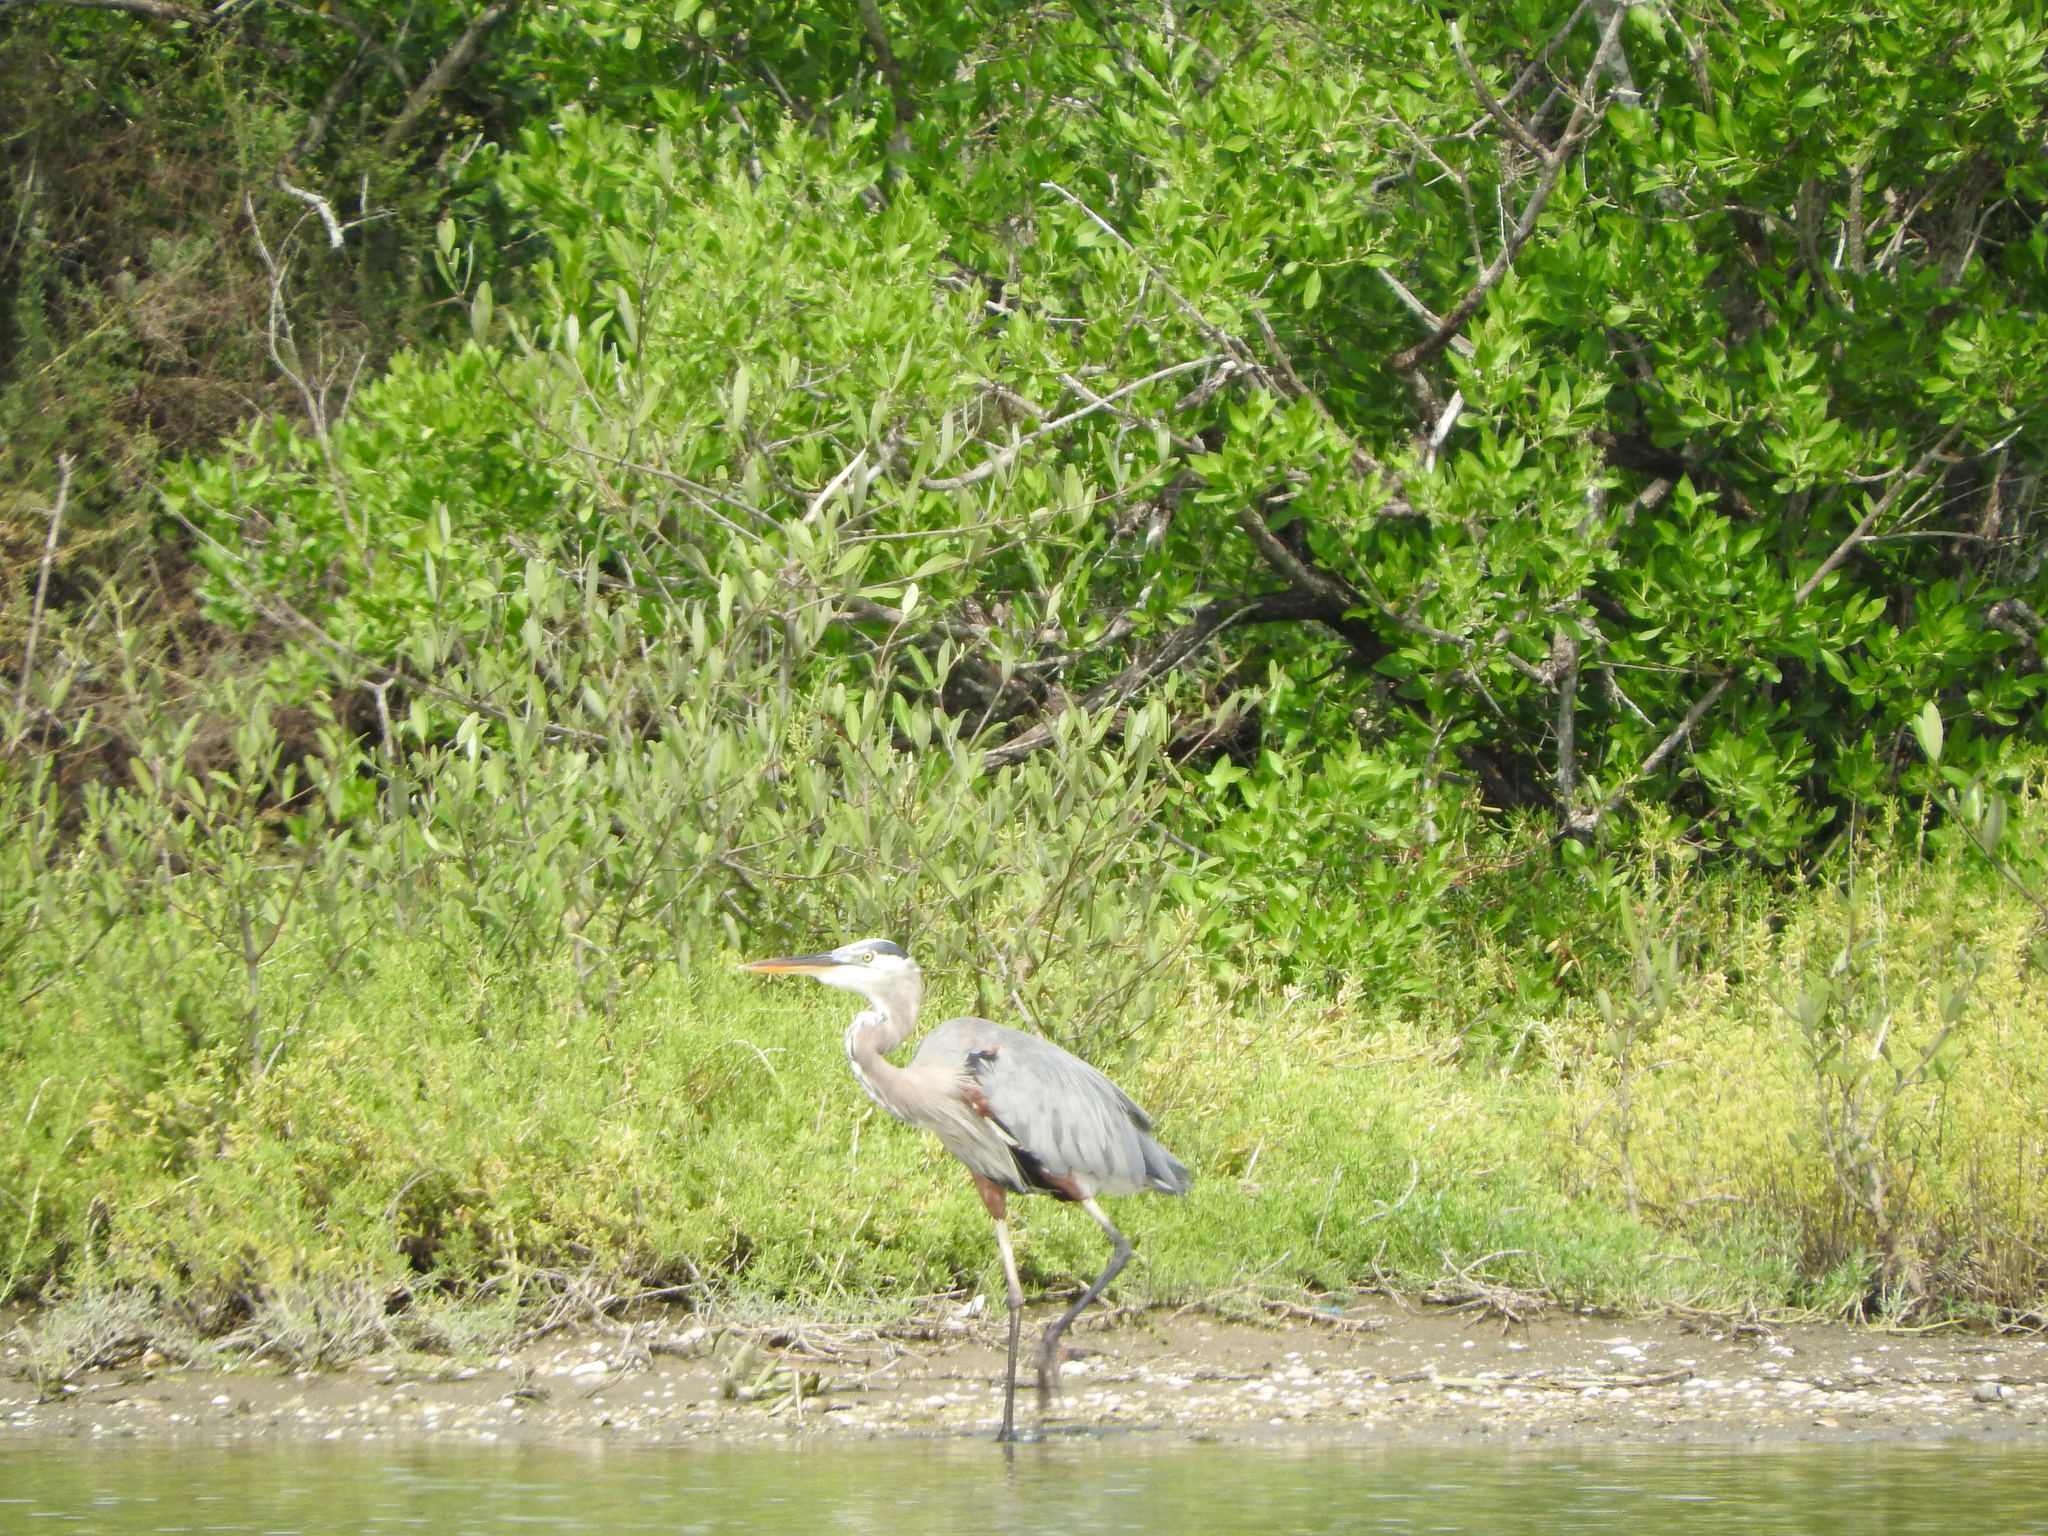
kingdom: Animalia
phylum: Chordata
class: Aves
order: Pelecaniformes
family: Ardeidae
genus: Ardea
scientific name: Ardea herodias
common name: Great blue heron
